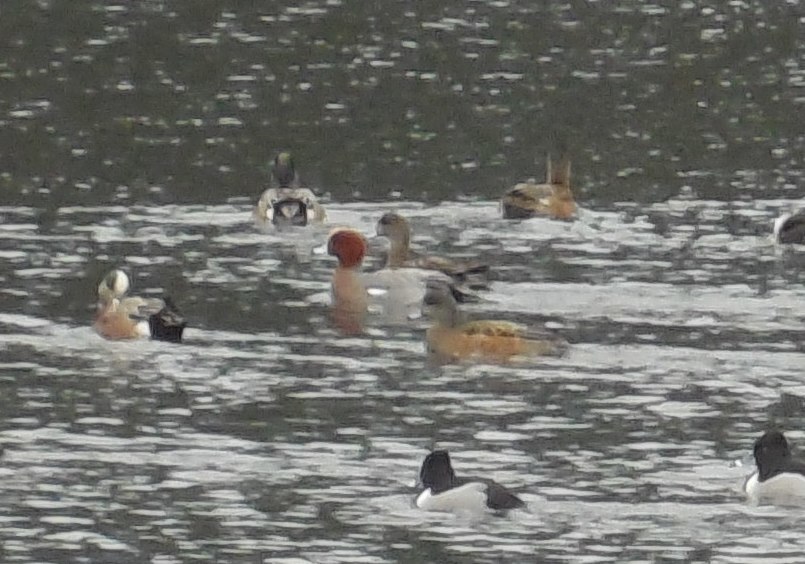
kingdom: Animalia
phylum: Chordata
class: Aves
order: Anseriformes
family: Anatidae
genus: Mareca
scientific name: Mareca penelope
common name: Eurasian wigeon
